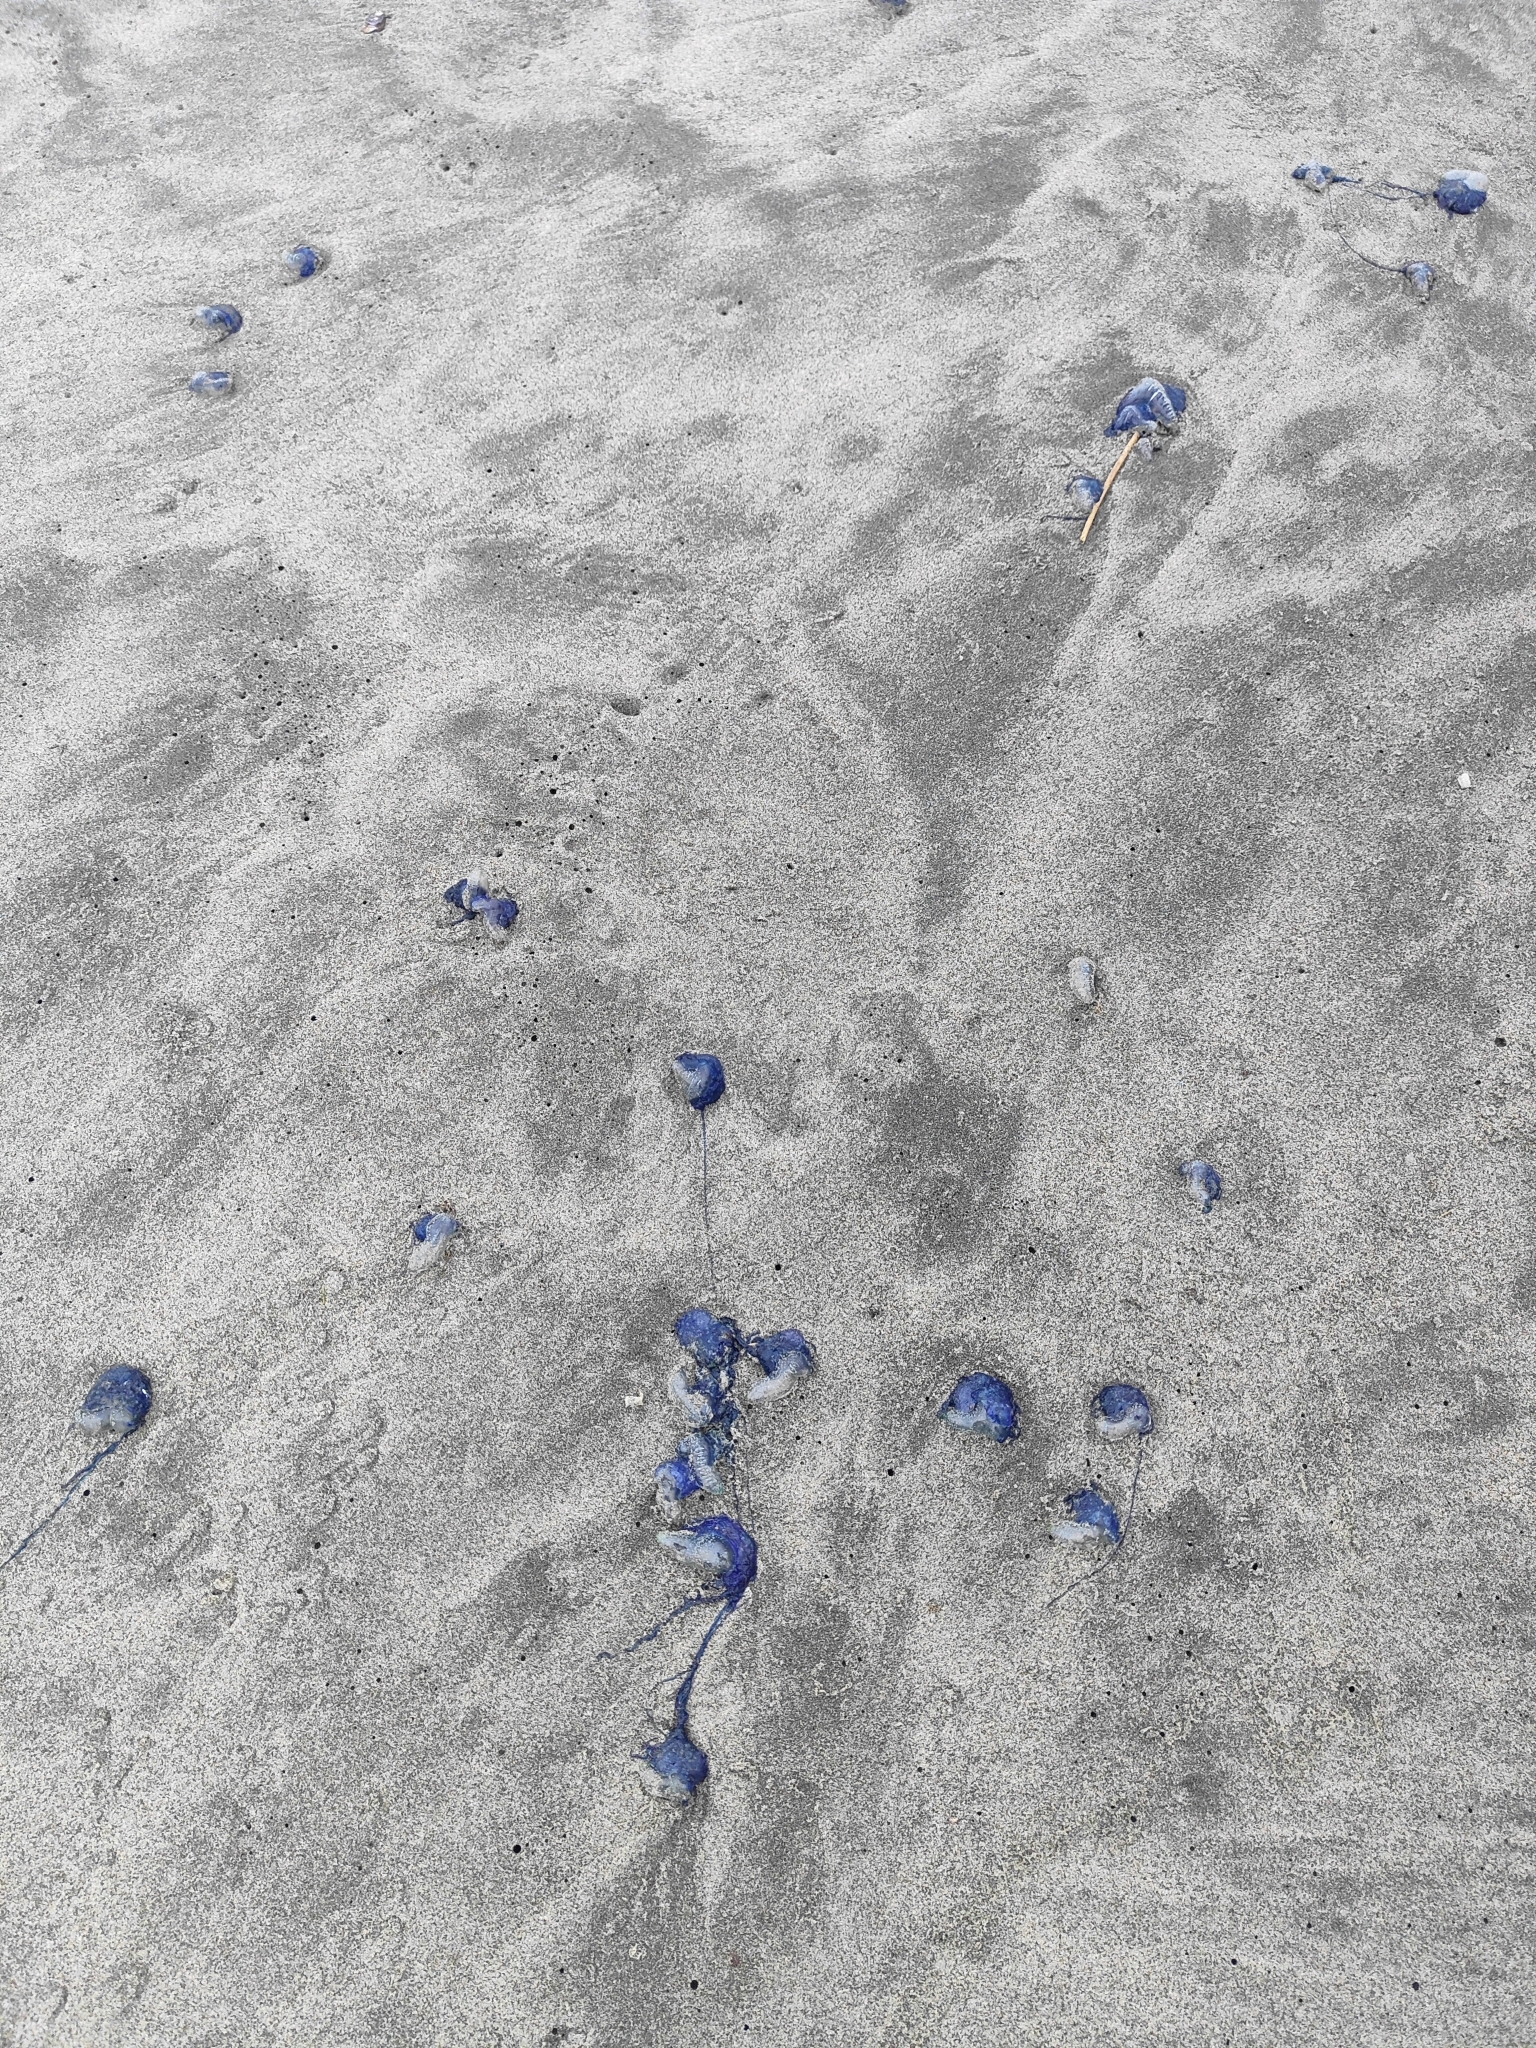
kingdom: Animalia
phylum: Cnidaria
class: Hydrozoa
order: Anthoathecata
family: Porpitidae
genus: Velella
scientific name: Velella velella
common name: By-the-wind-sailor
